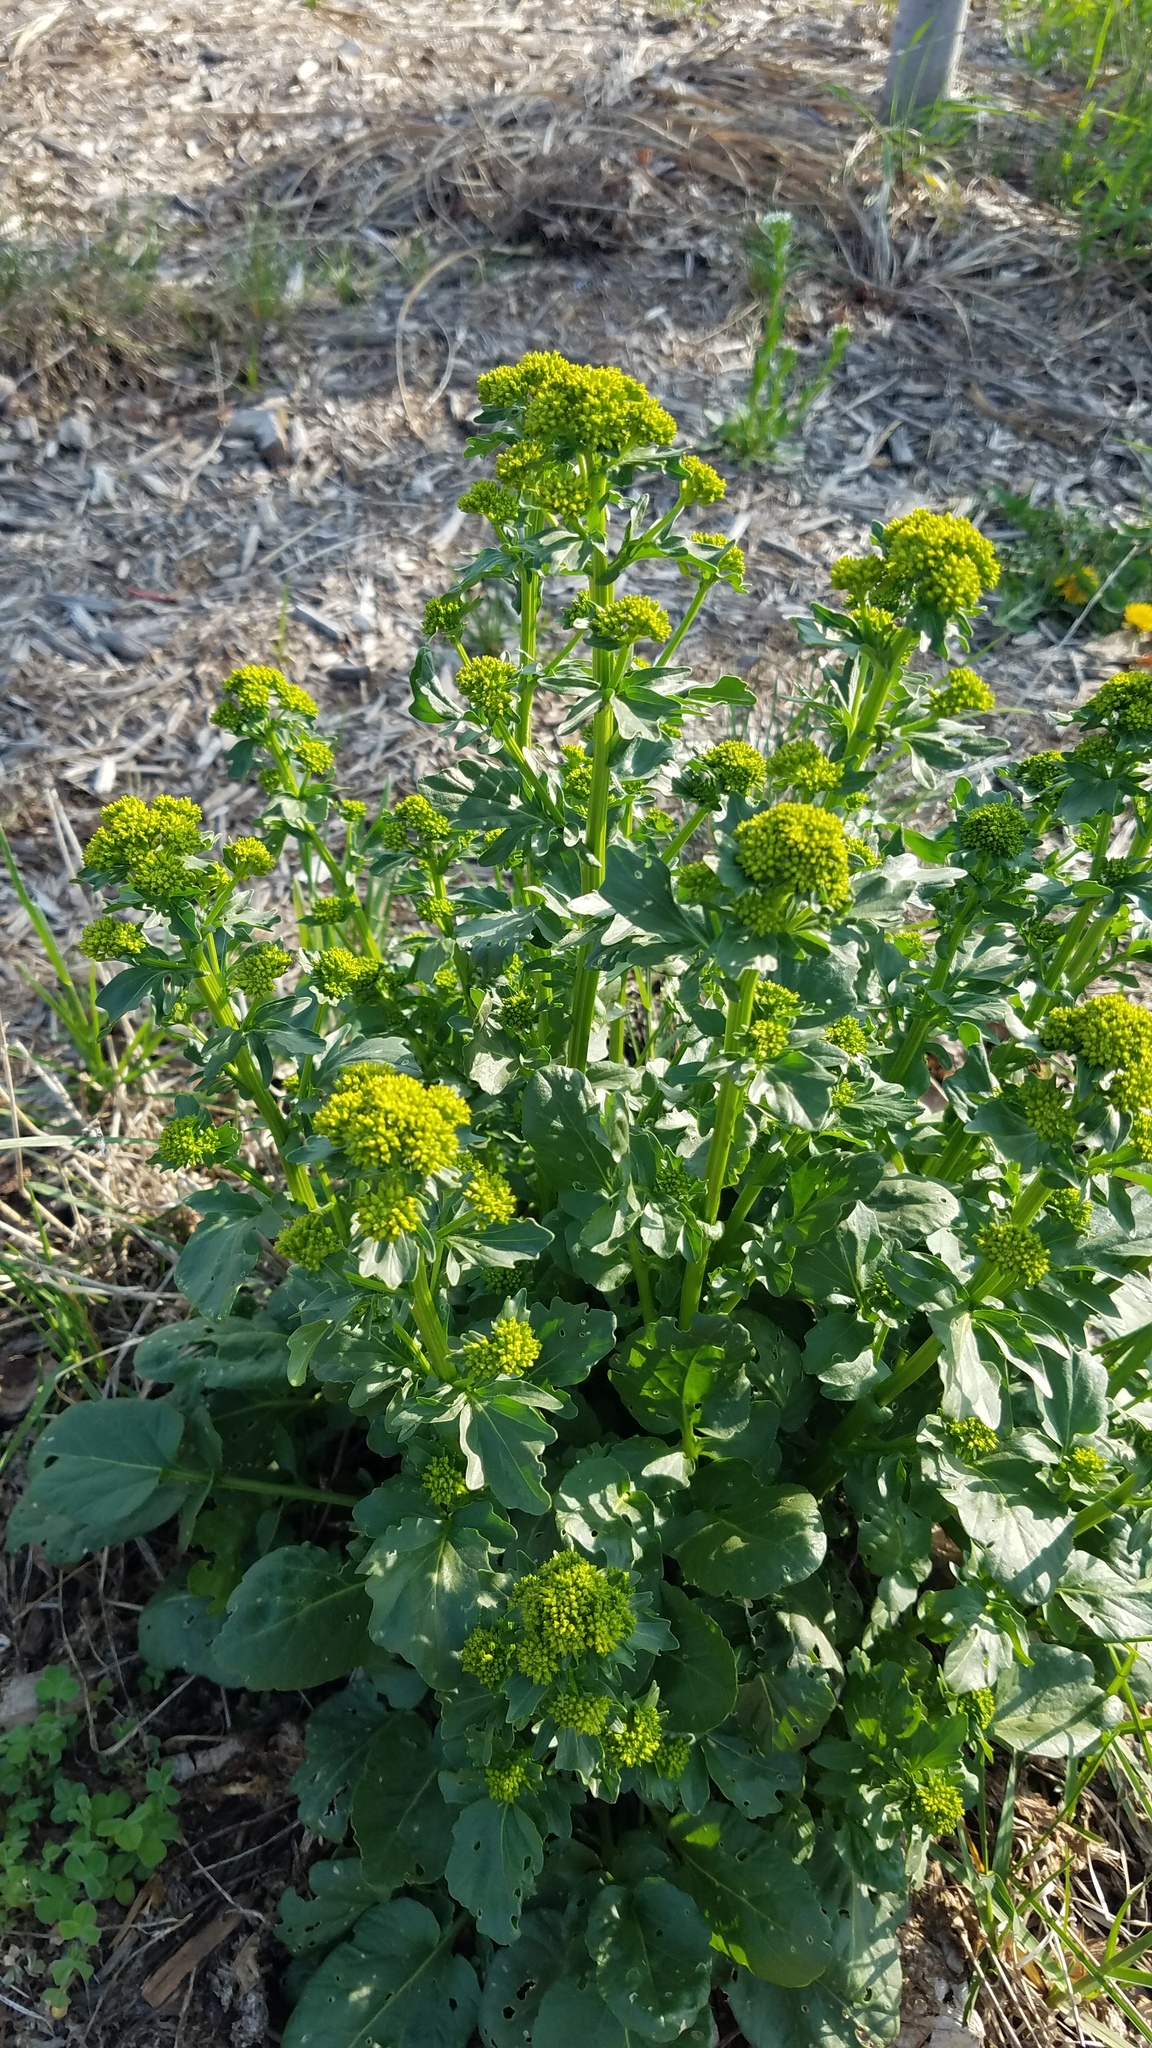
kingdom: Plantae
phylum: Tracheophyta
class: Magnoliopsida
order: Brassicales
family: Brassicaceae
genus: Barbarea
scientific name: Barbarea vulgaris
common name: Cressy-greens
